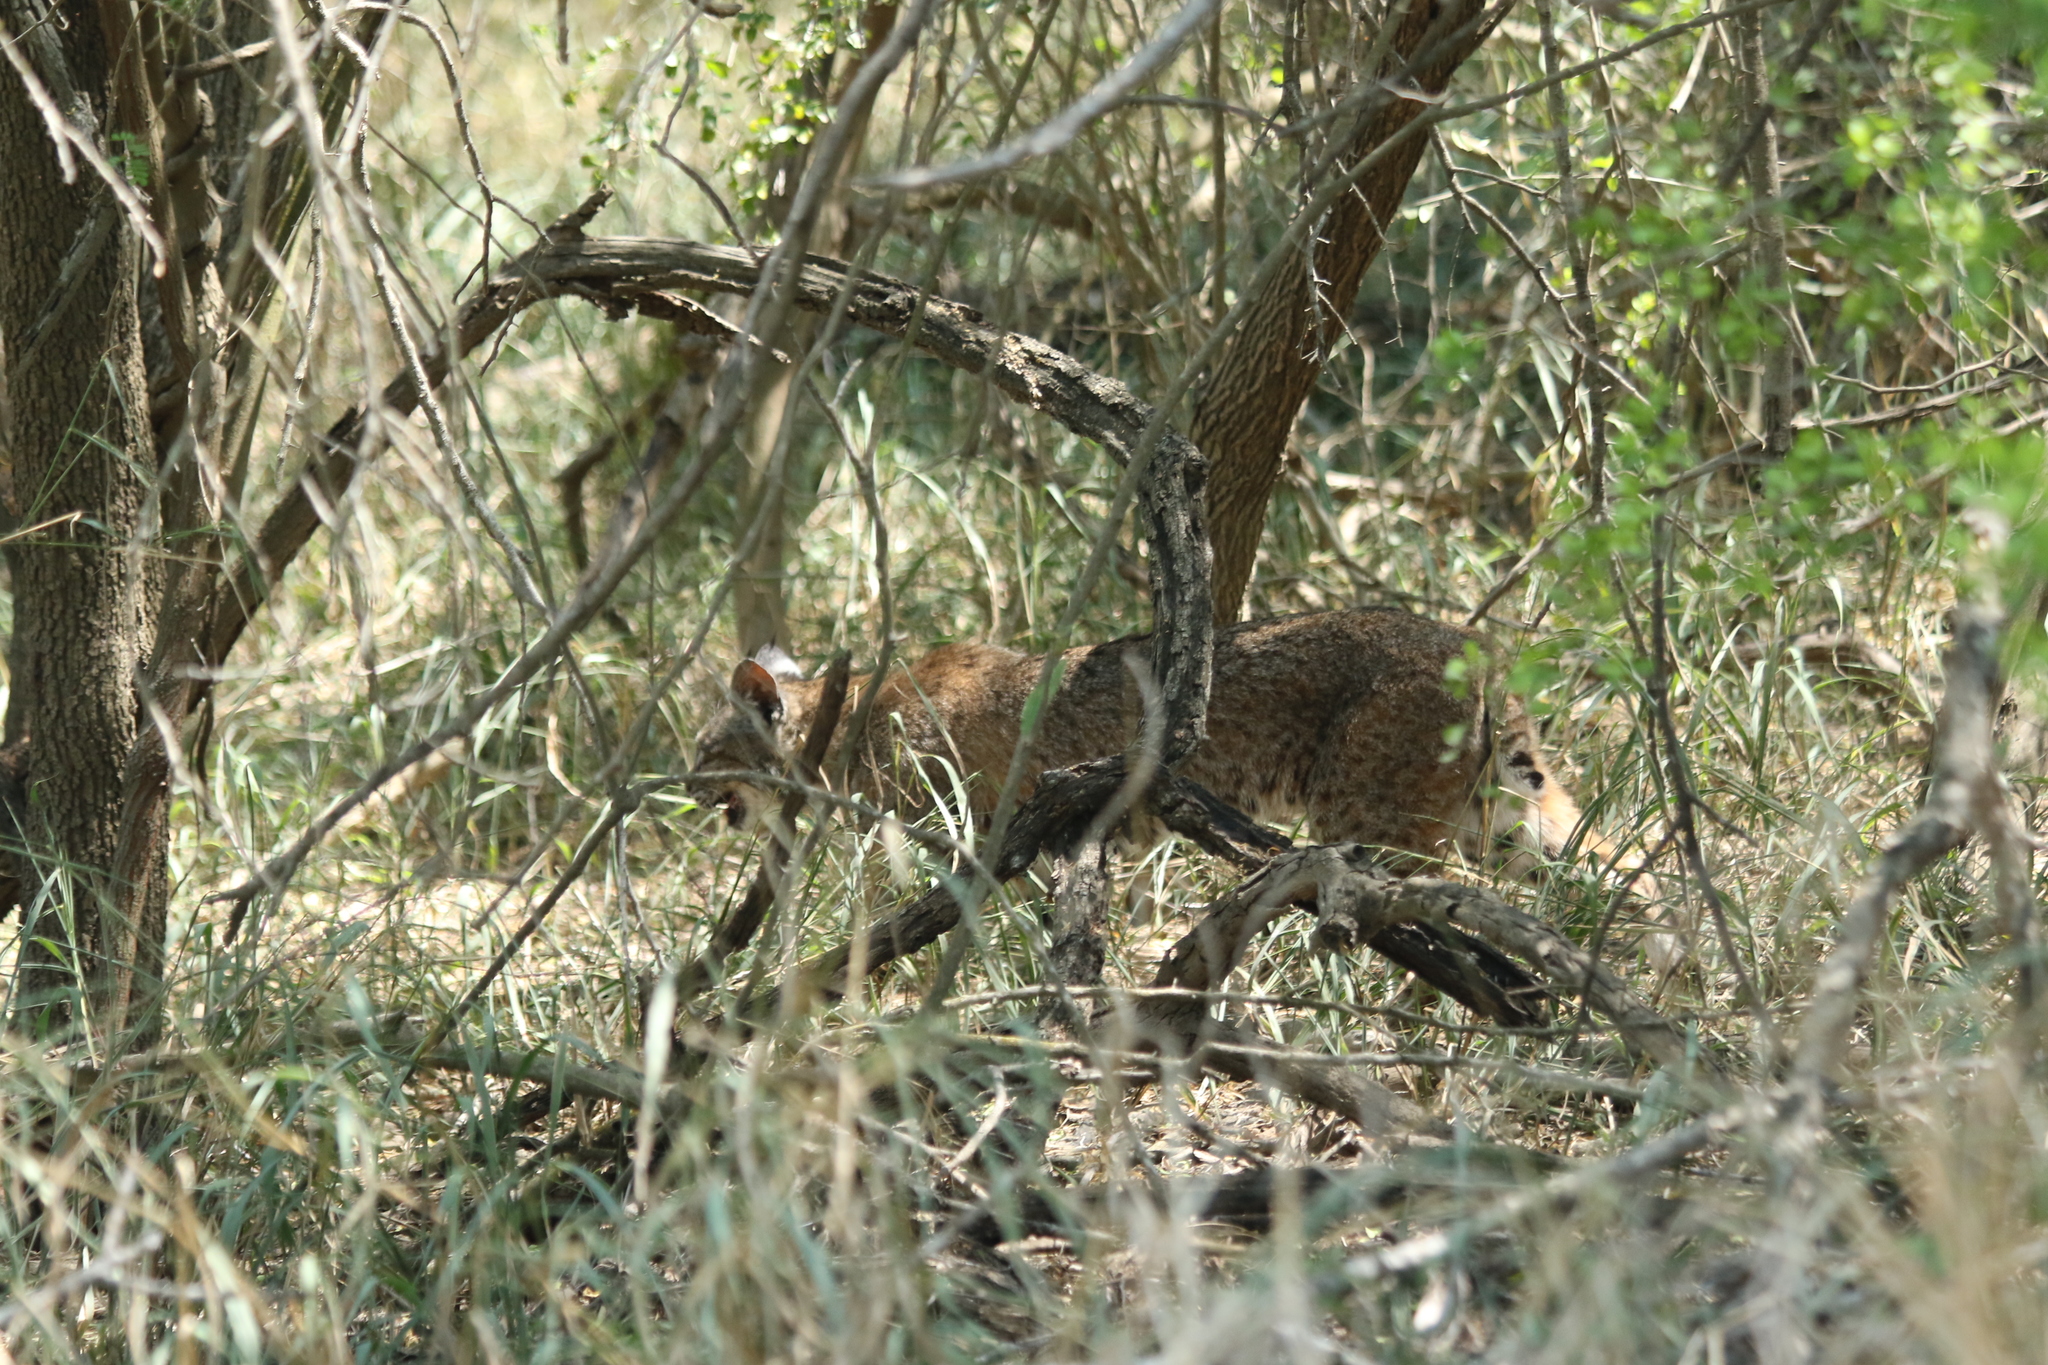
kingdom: Animalia
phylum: Chordata
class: Mammalia
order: Carnivora
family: Felidae
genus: Lynx
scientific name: Lynx rufus
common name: Bobcat
